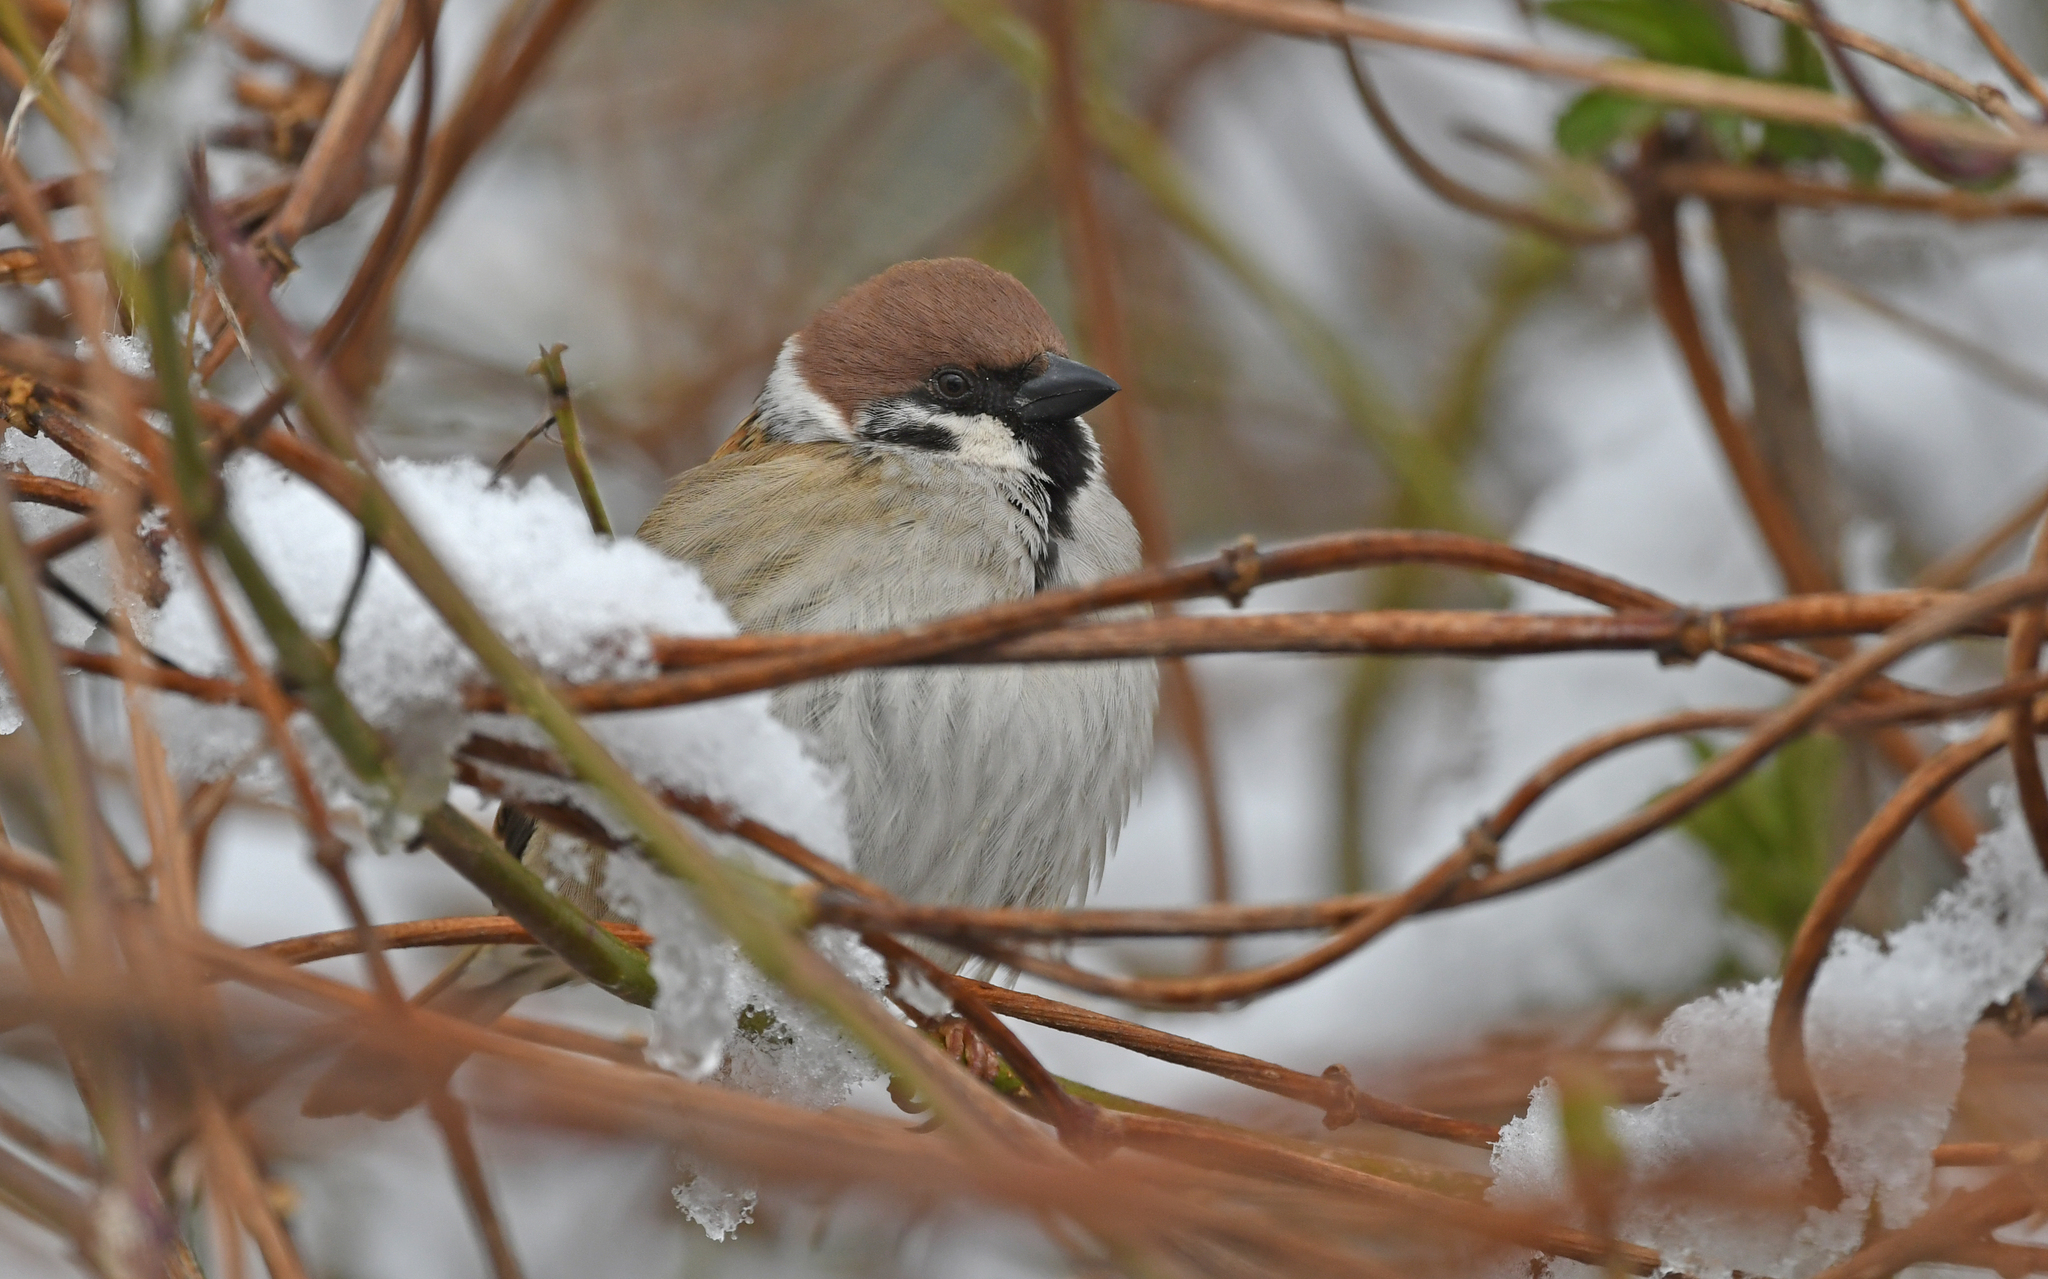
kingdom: Animalia
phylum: Chordata
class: Aves
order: Passeriformes
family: Passeridae
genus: Passer
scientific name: Passer montanus
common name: Eurasian tree sparrow
